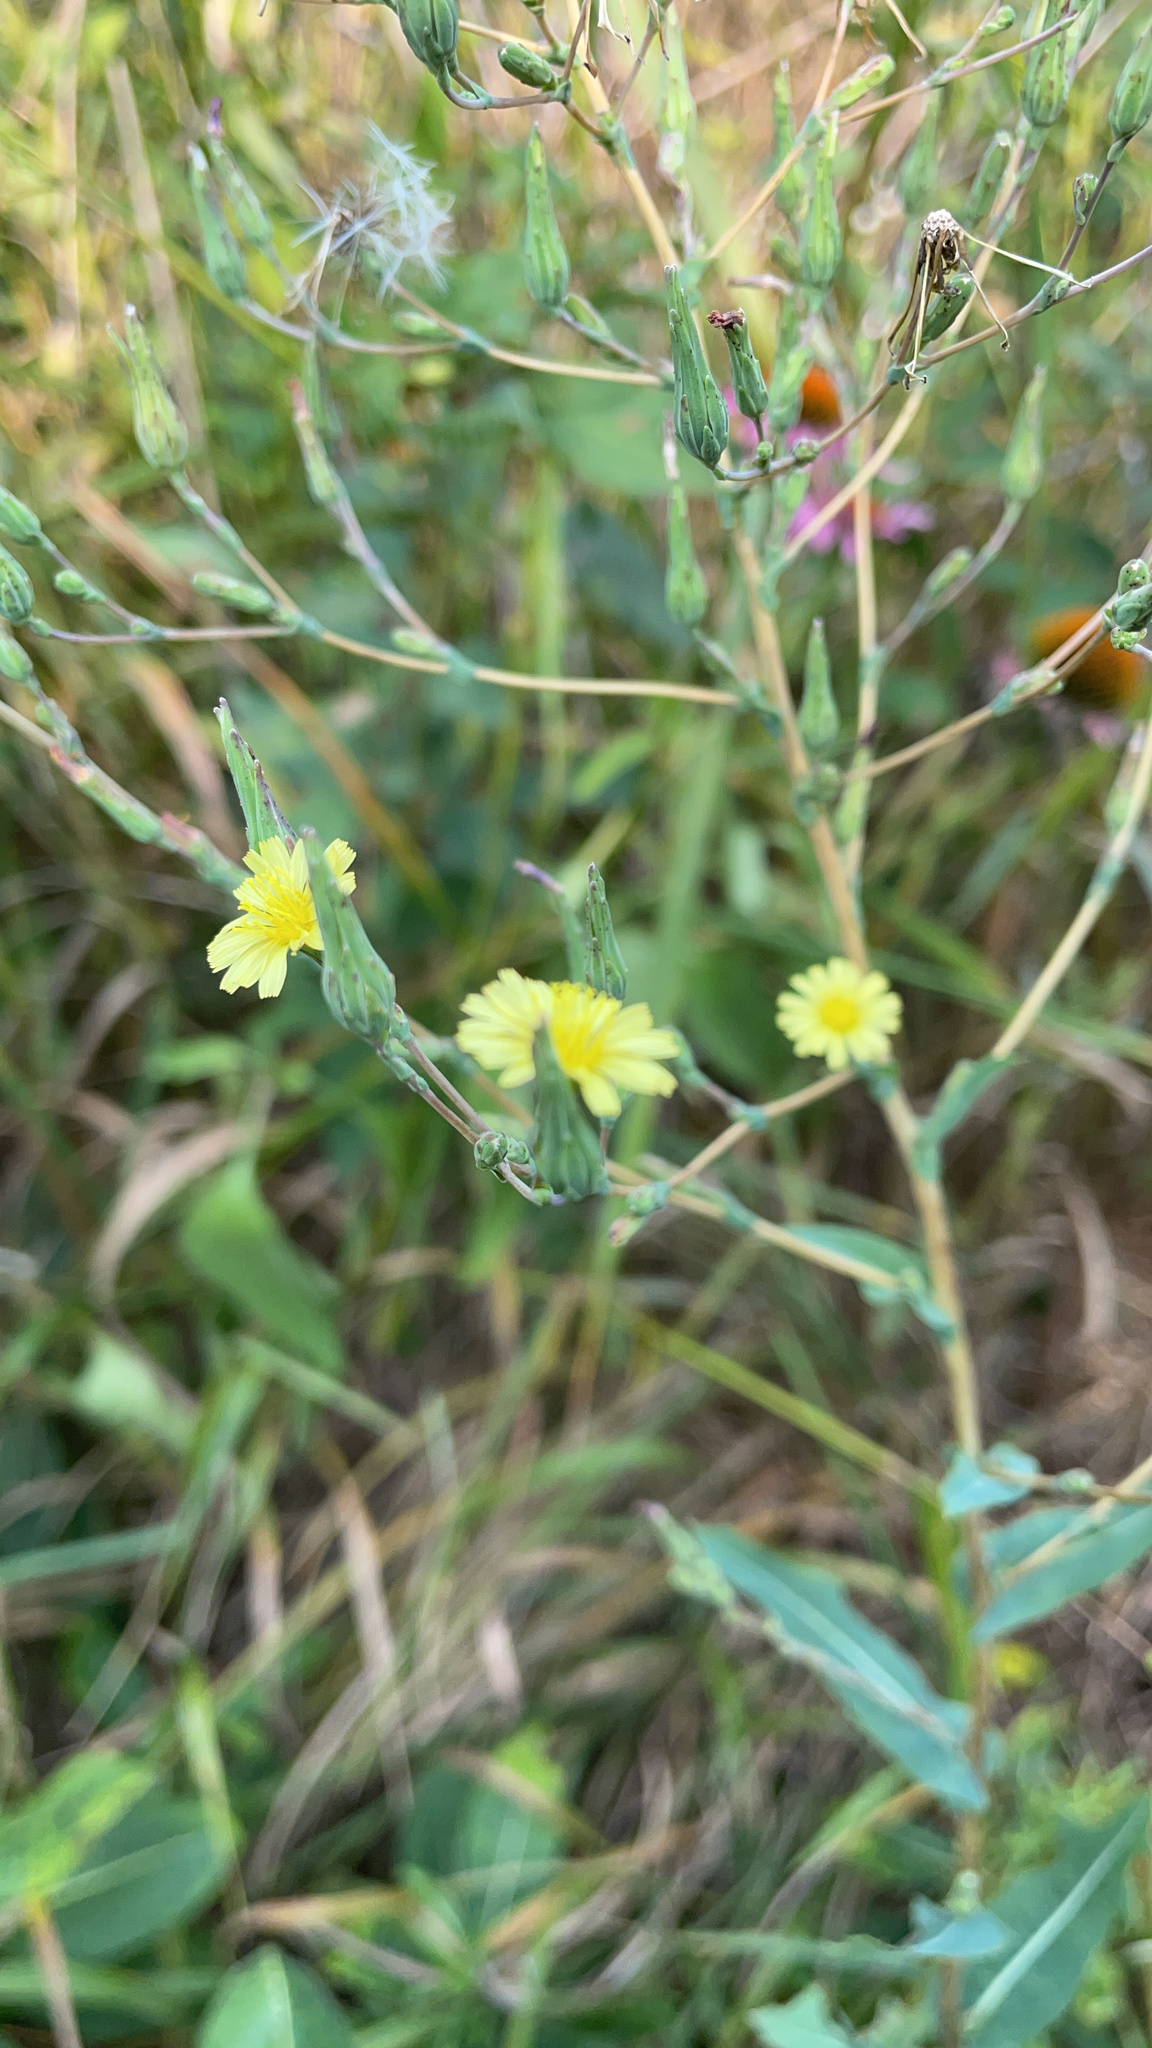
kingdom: Plantae
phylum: Tracheophyta
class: Magnoliopsida
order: Asterales
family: Asteraceae
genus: Lactuca
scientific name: Lactuca serriola
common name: Prickly lettuce
